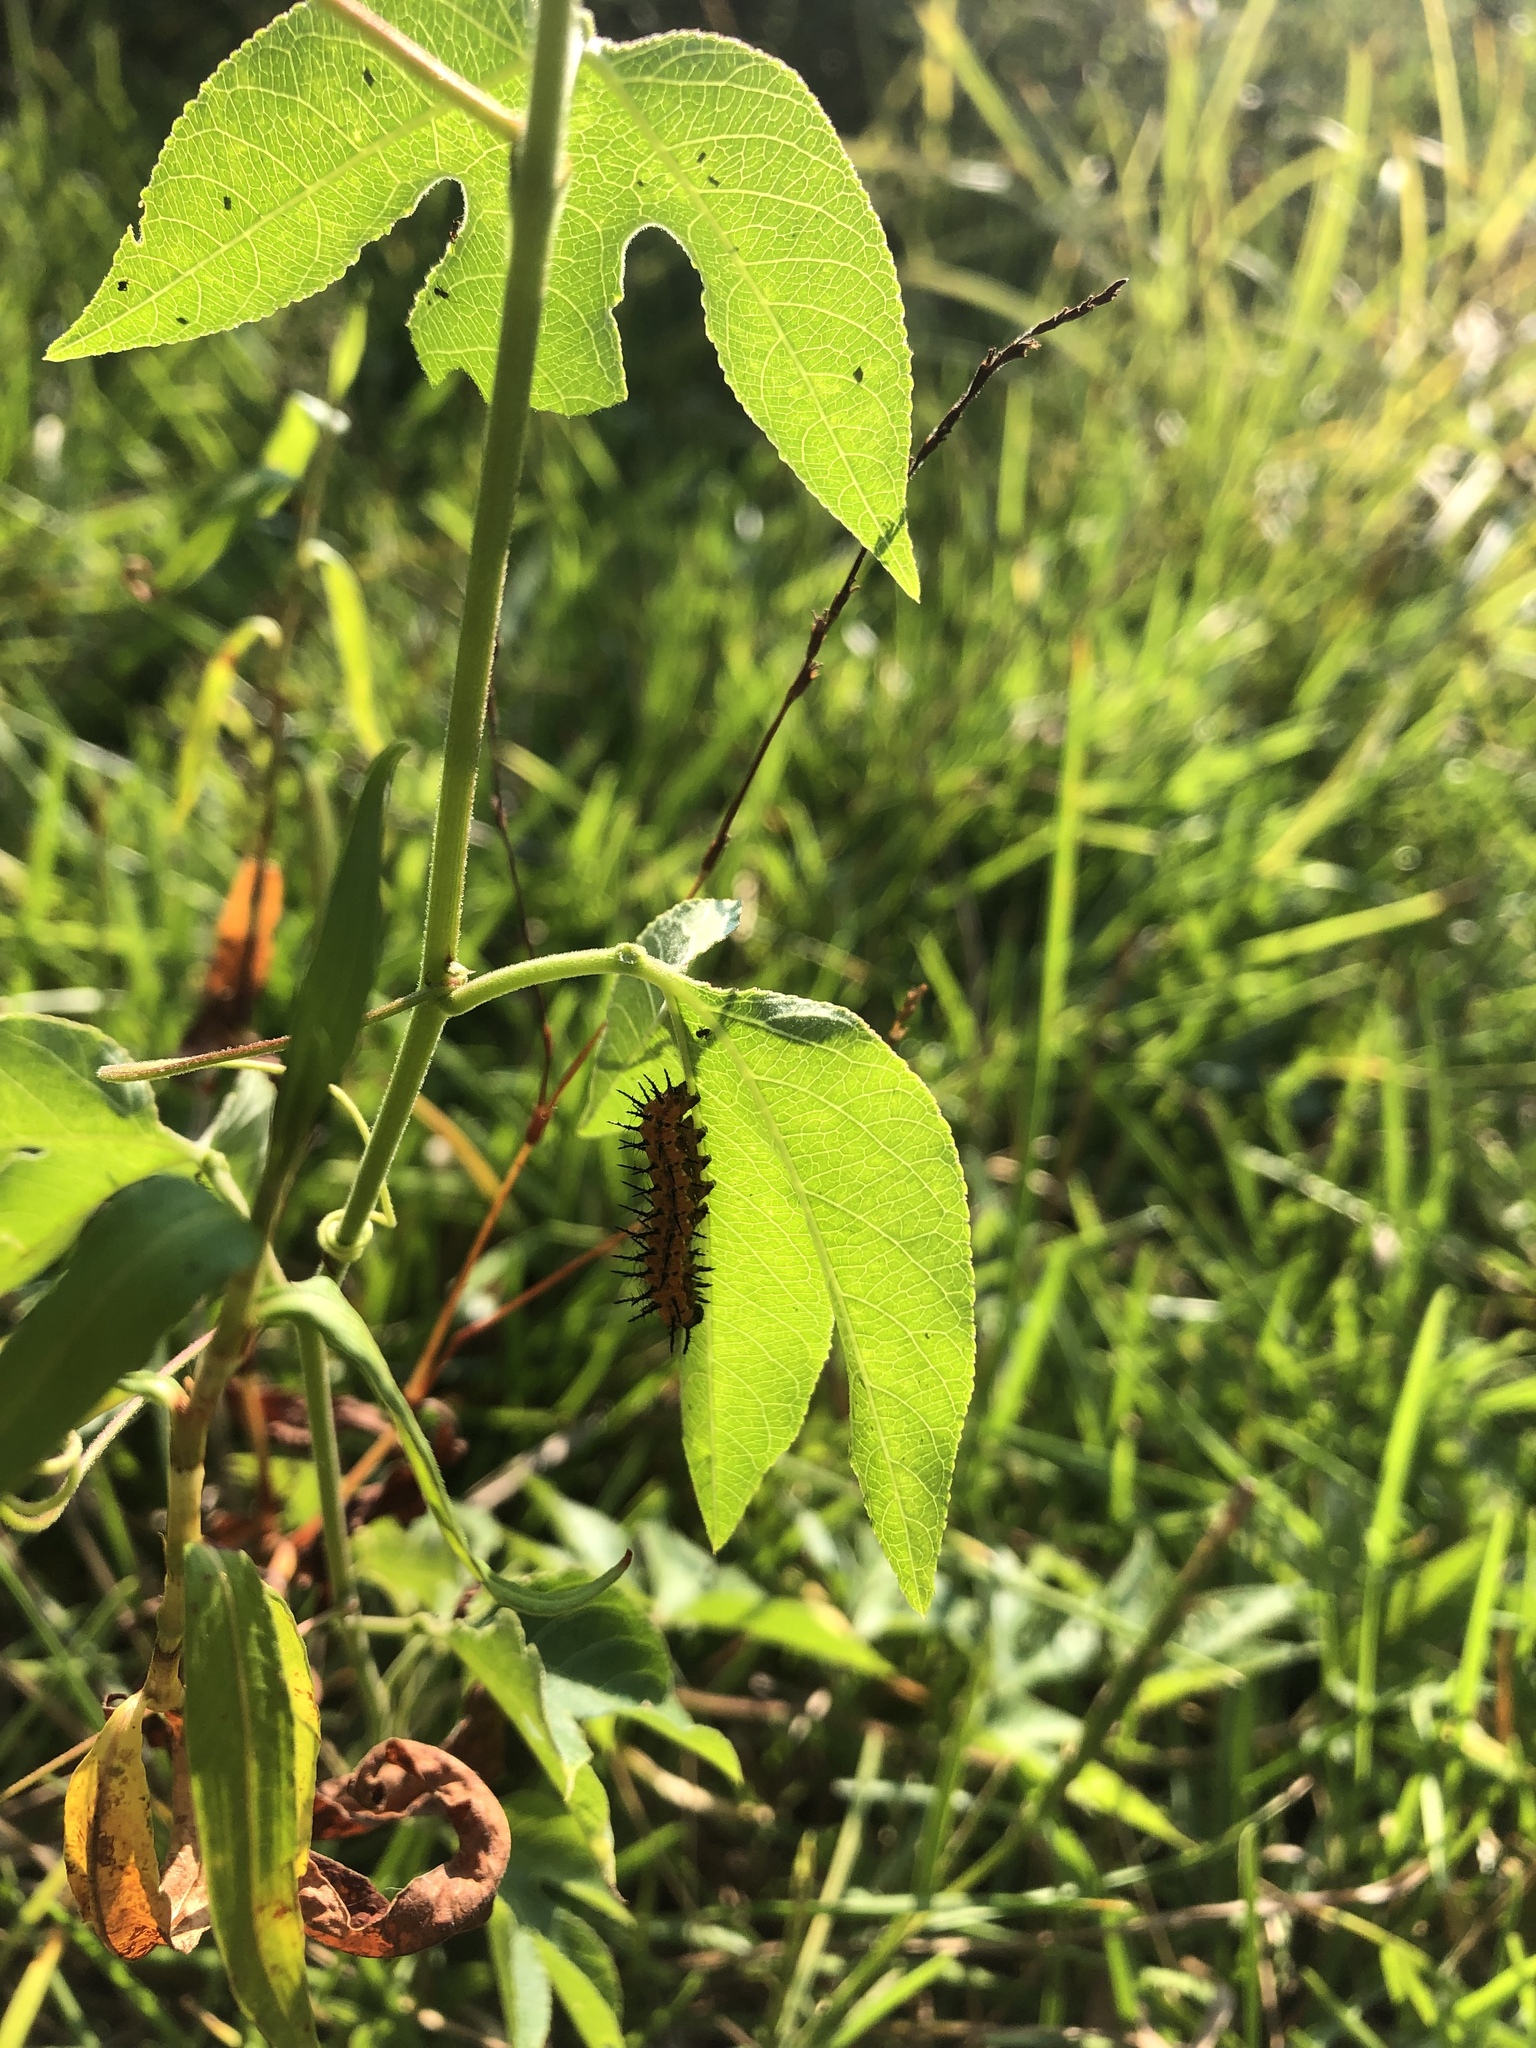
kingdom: Animalia
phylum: Arthropoda
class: Insecta
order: Lepidoptera
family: Nymphalidae
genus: Dione
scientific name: Dione vanillae
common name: Gulf fritillary
